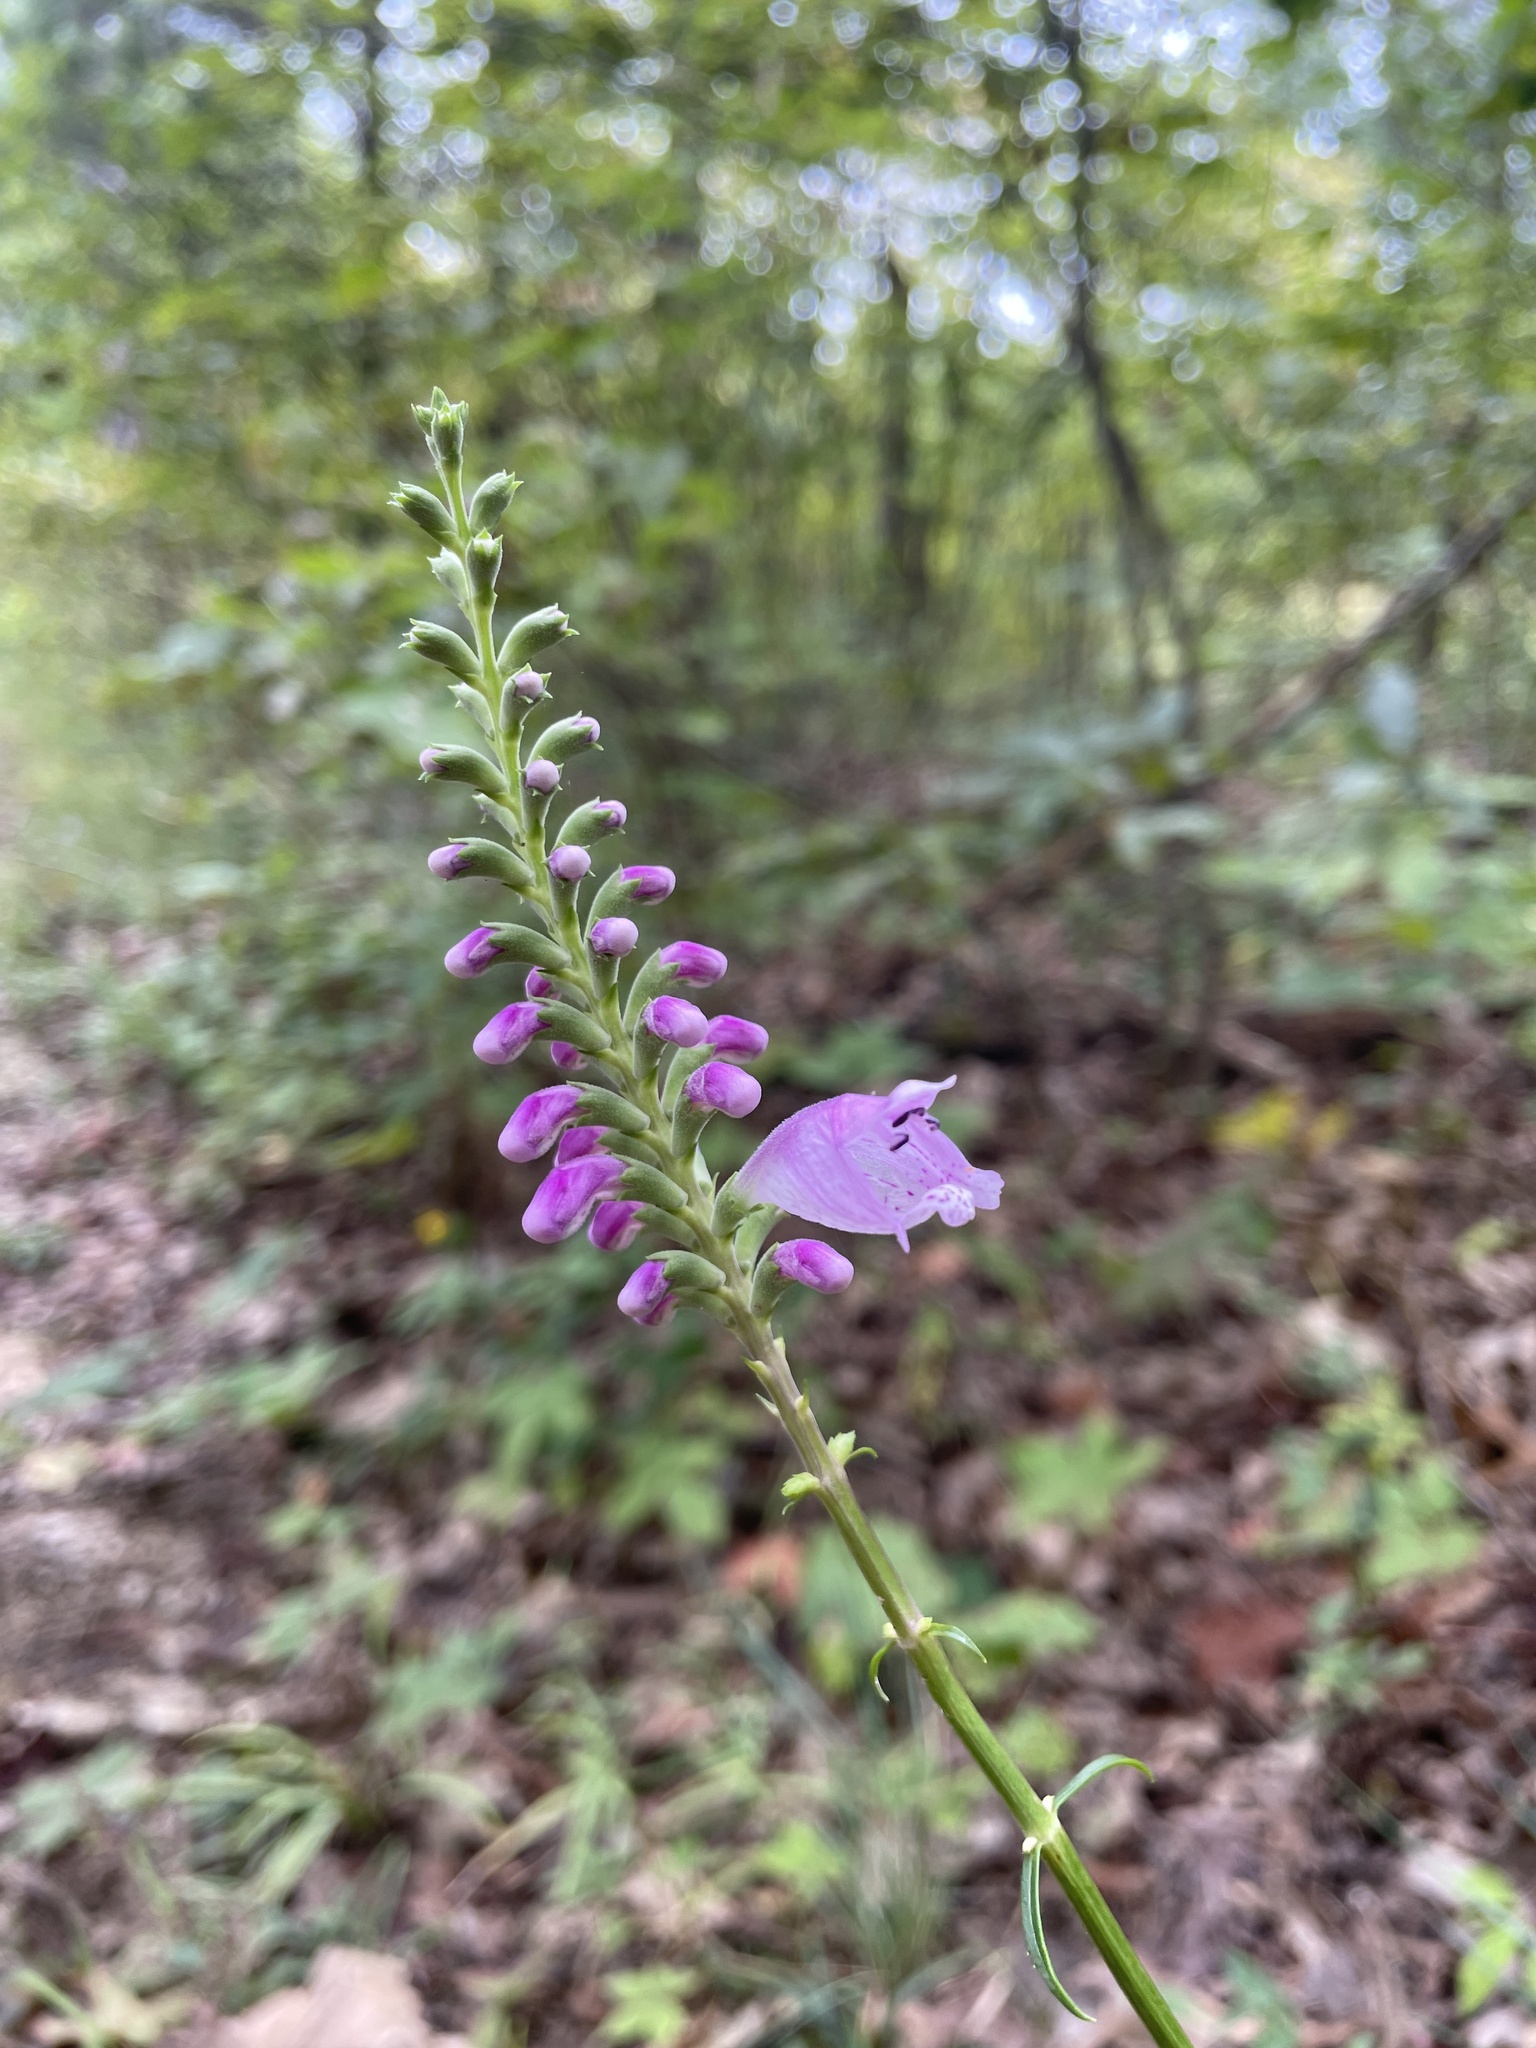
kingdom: Plantae
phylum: Tracheophyta
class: Magnoliopsida
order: Lamiales
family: Lamiaceae
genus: Physostegia
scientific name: Physostegia virginiana
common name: Obedient-plant
